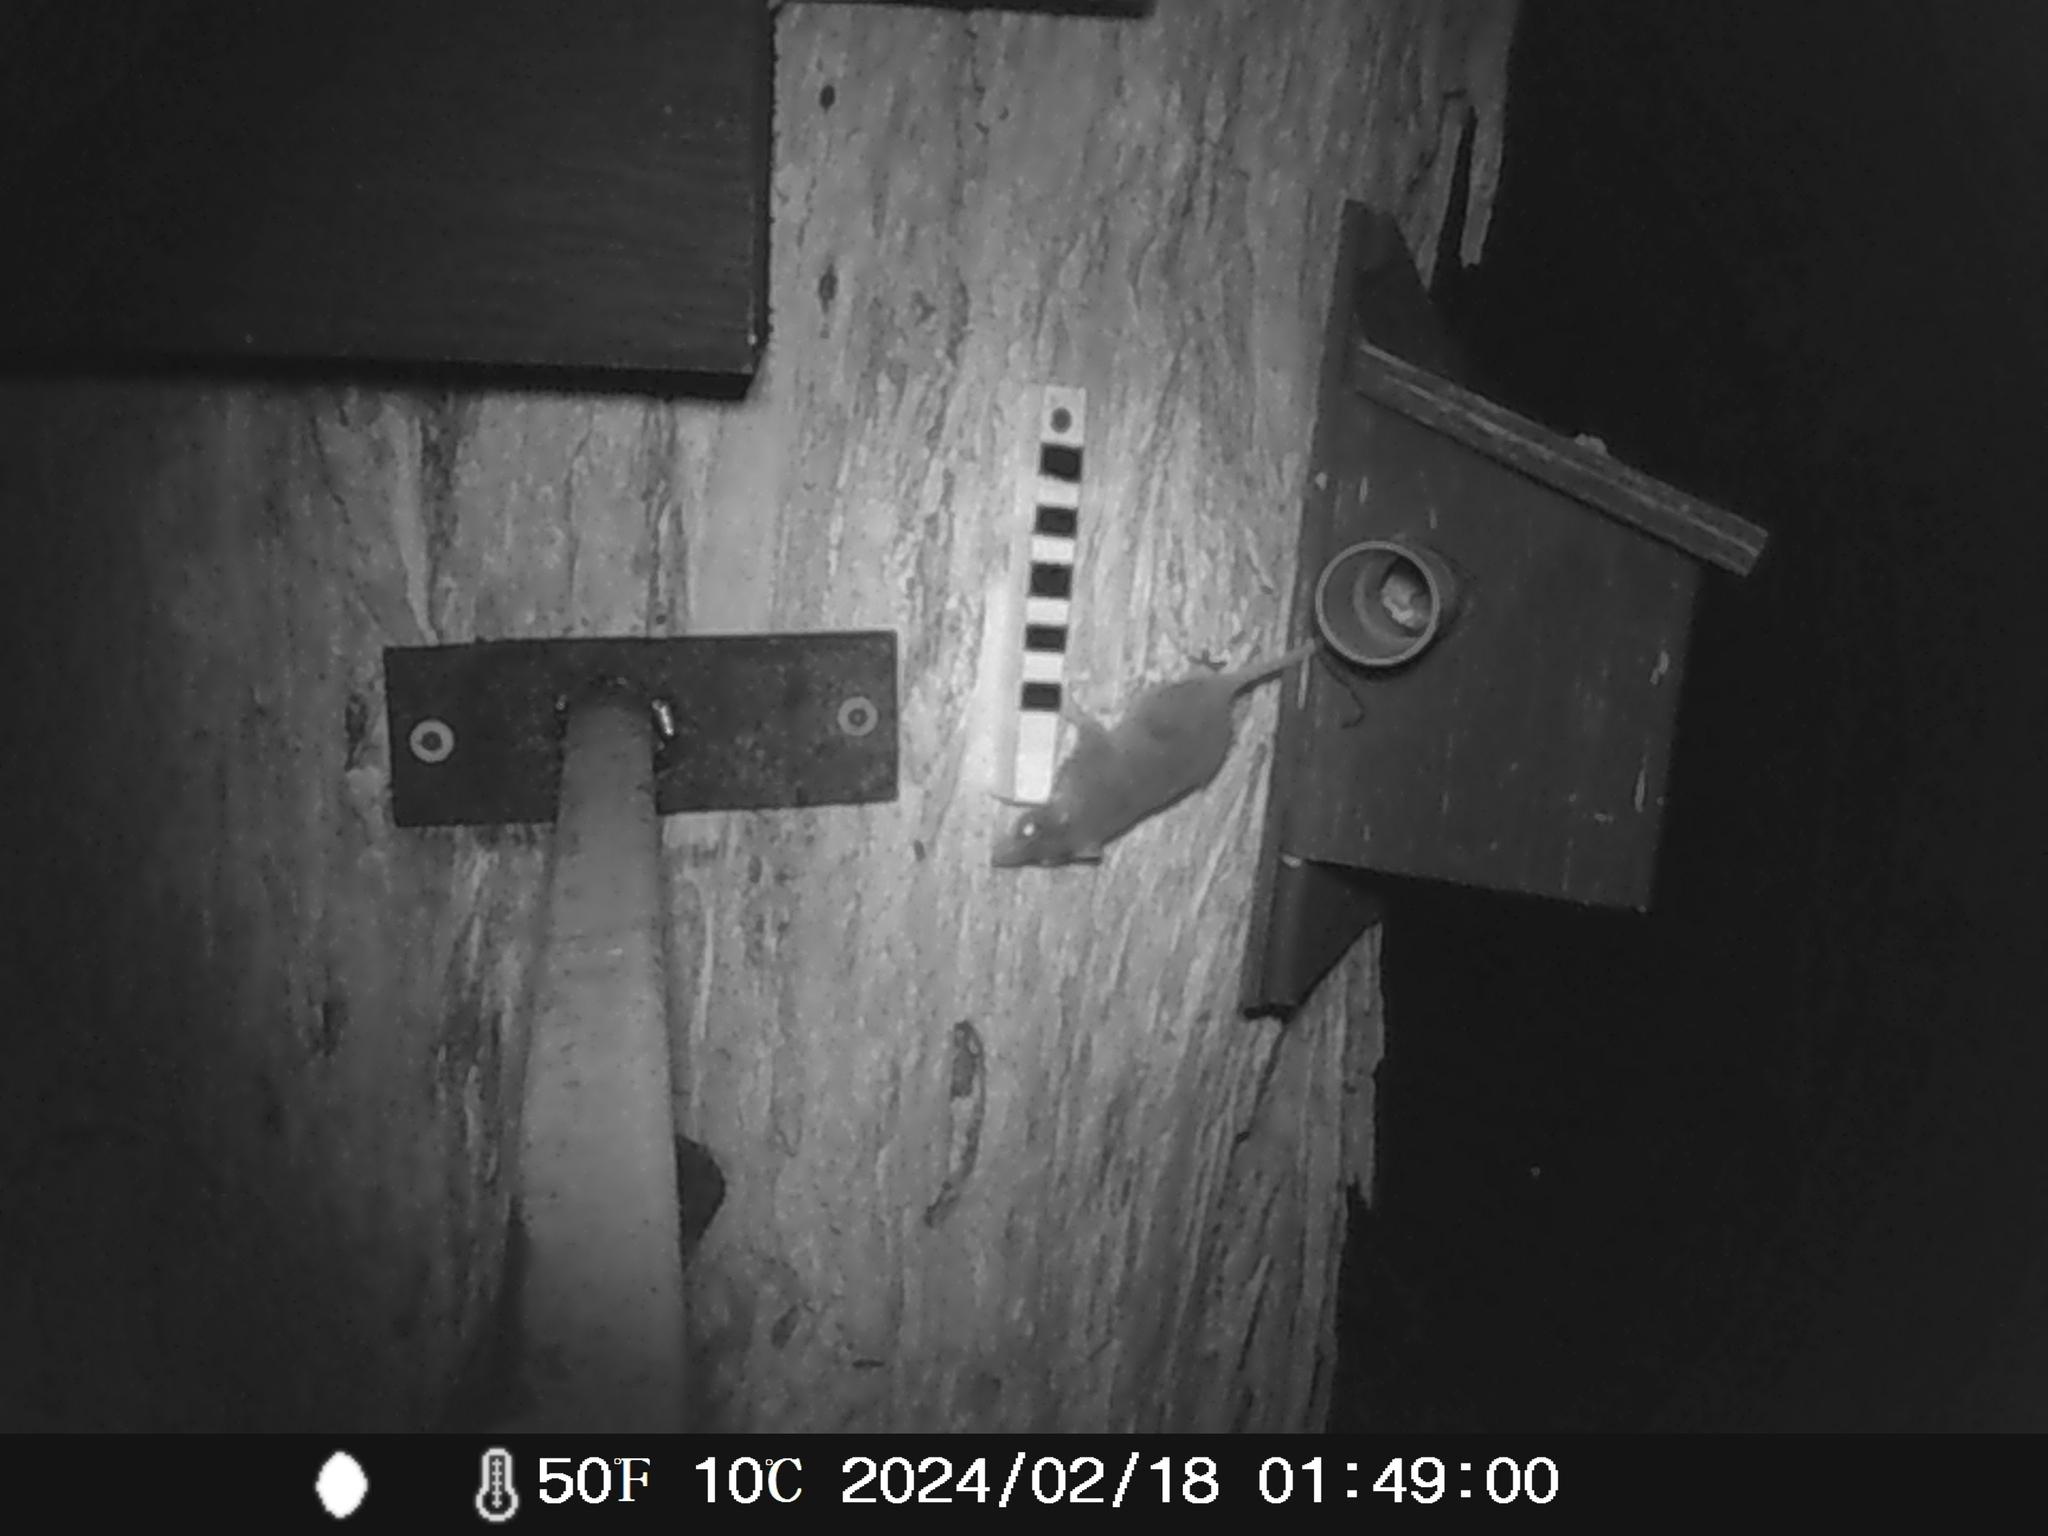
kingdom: Animalia
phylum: Chordata
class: Mammalia
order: Dasyuromorphia
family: Dasyuridae
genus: Antechinus
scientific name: Antechinus agilis
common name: Agile antechinus
